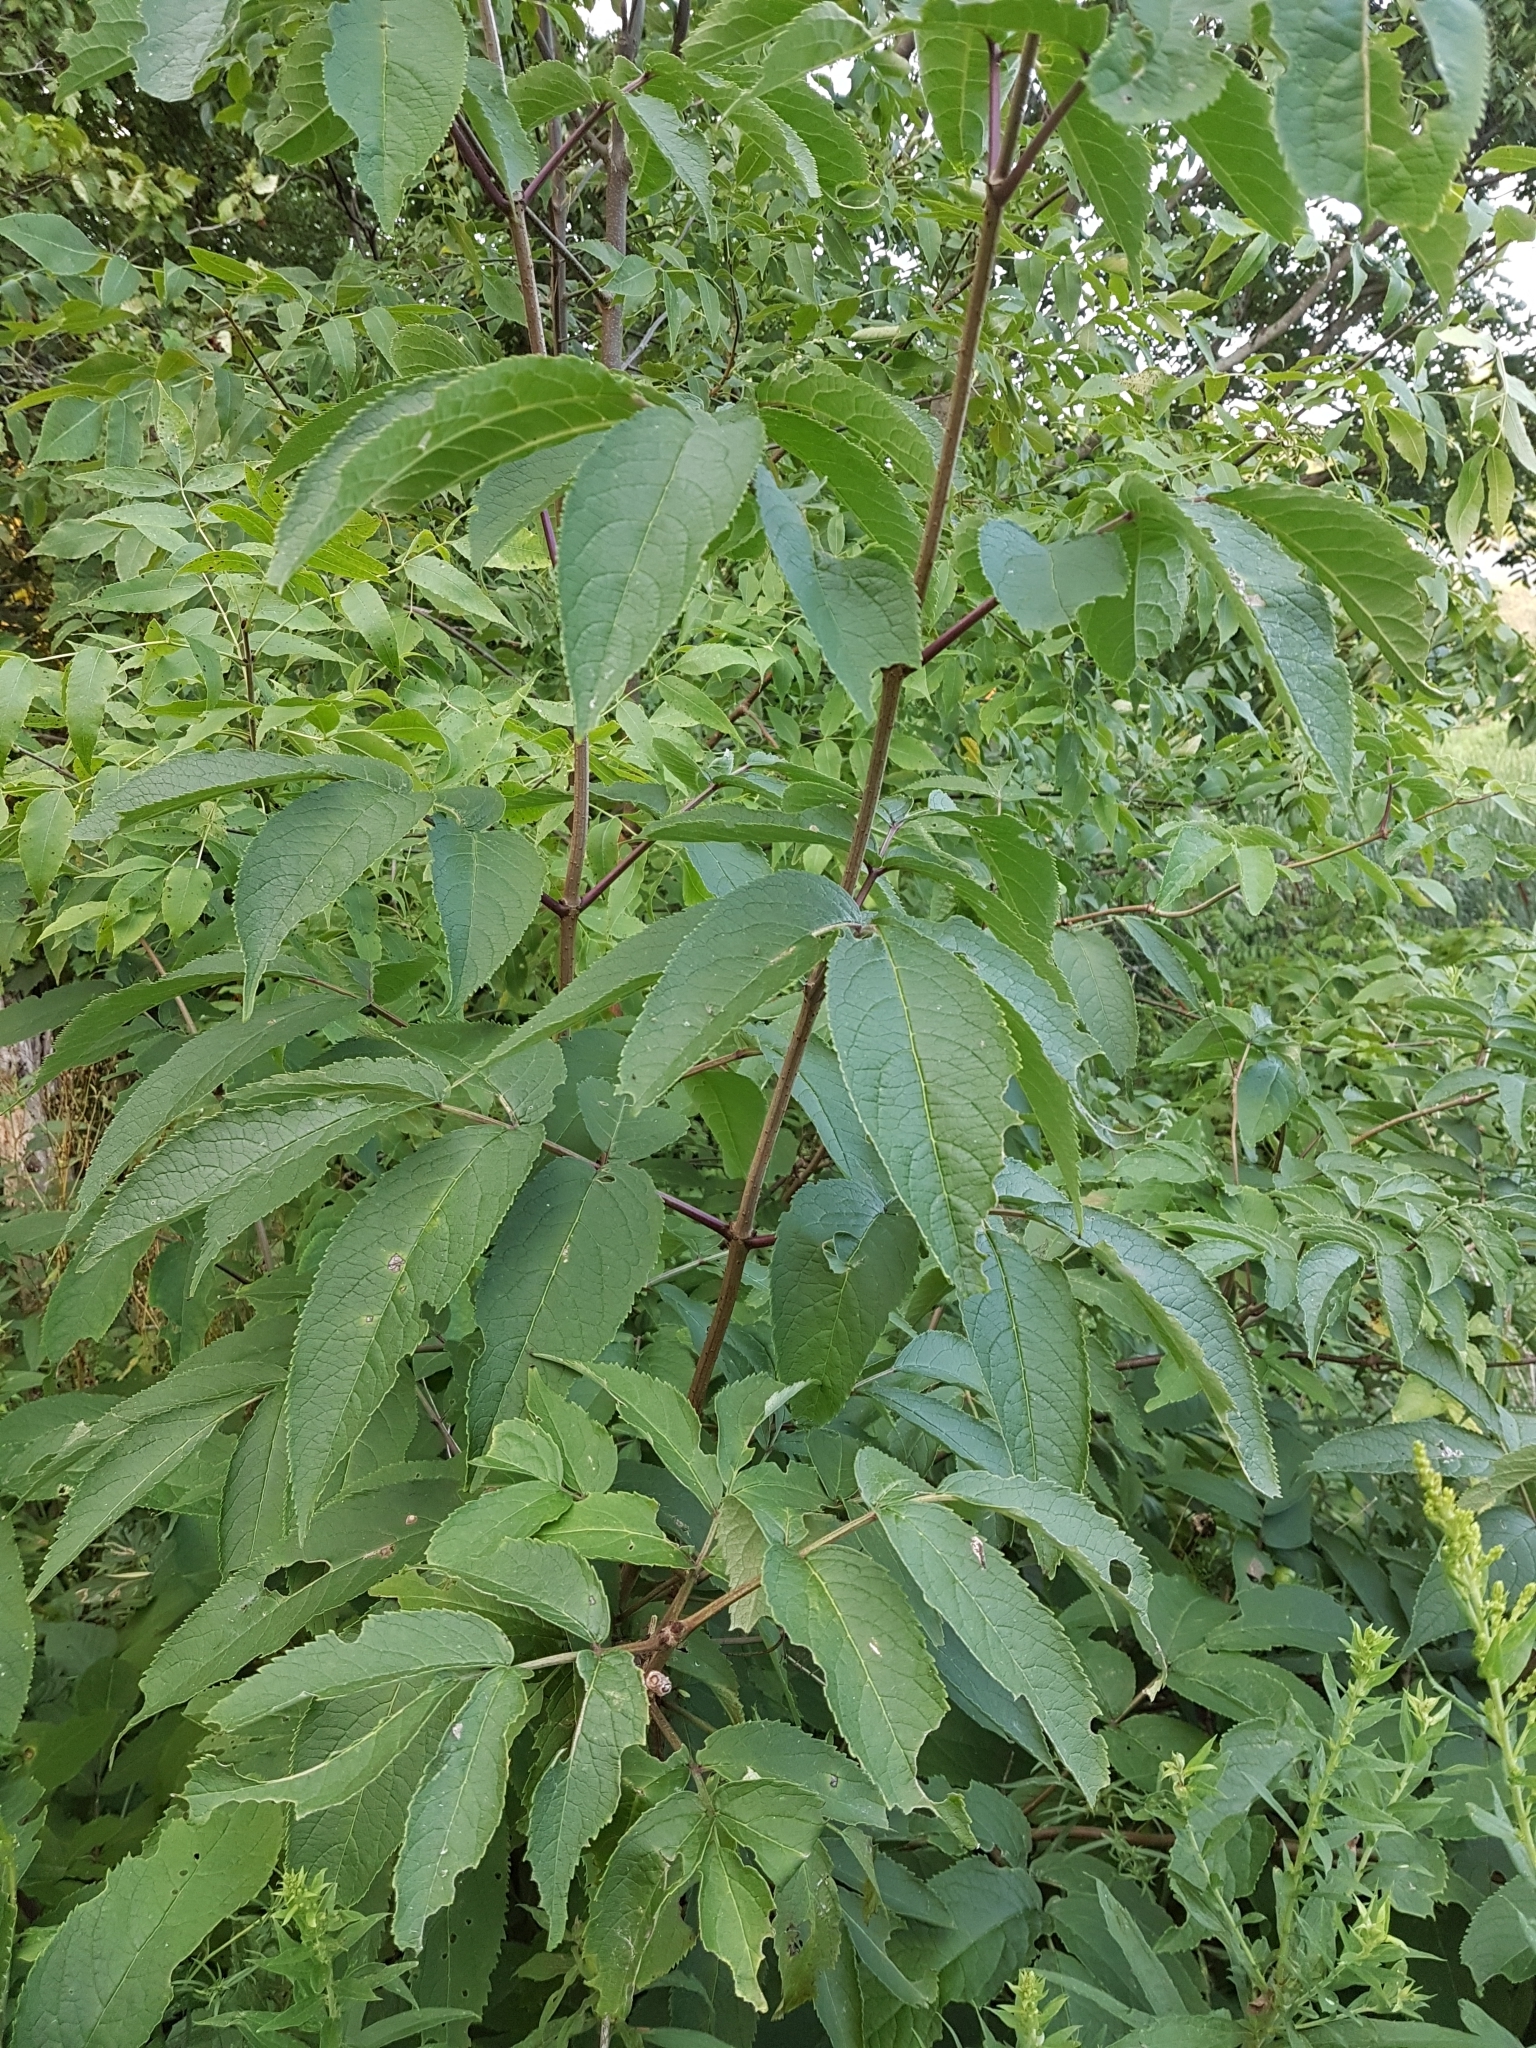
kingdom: Plantae
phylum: Tracheophyta
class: Magnoliopsida
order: Dipsacales
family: Viburnaceae
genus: Sambucus
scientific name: Sambucus racemosa
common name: Red-berried elder
